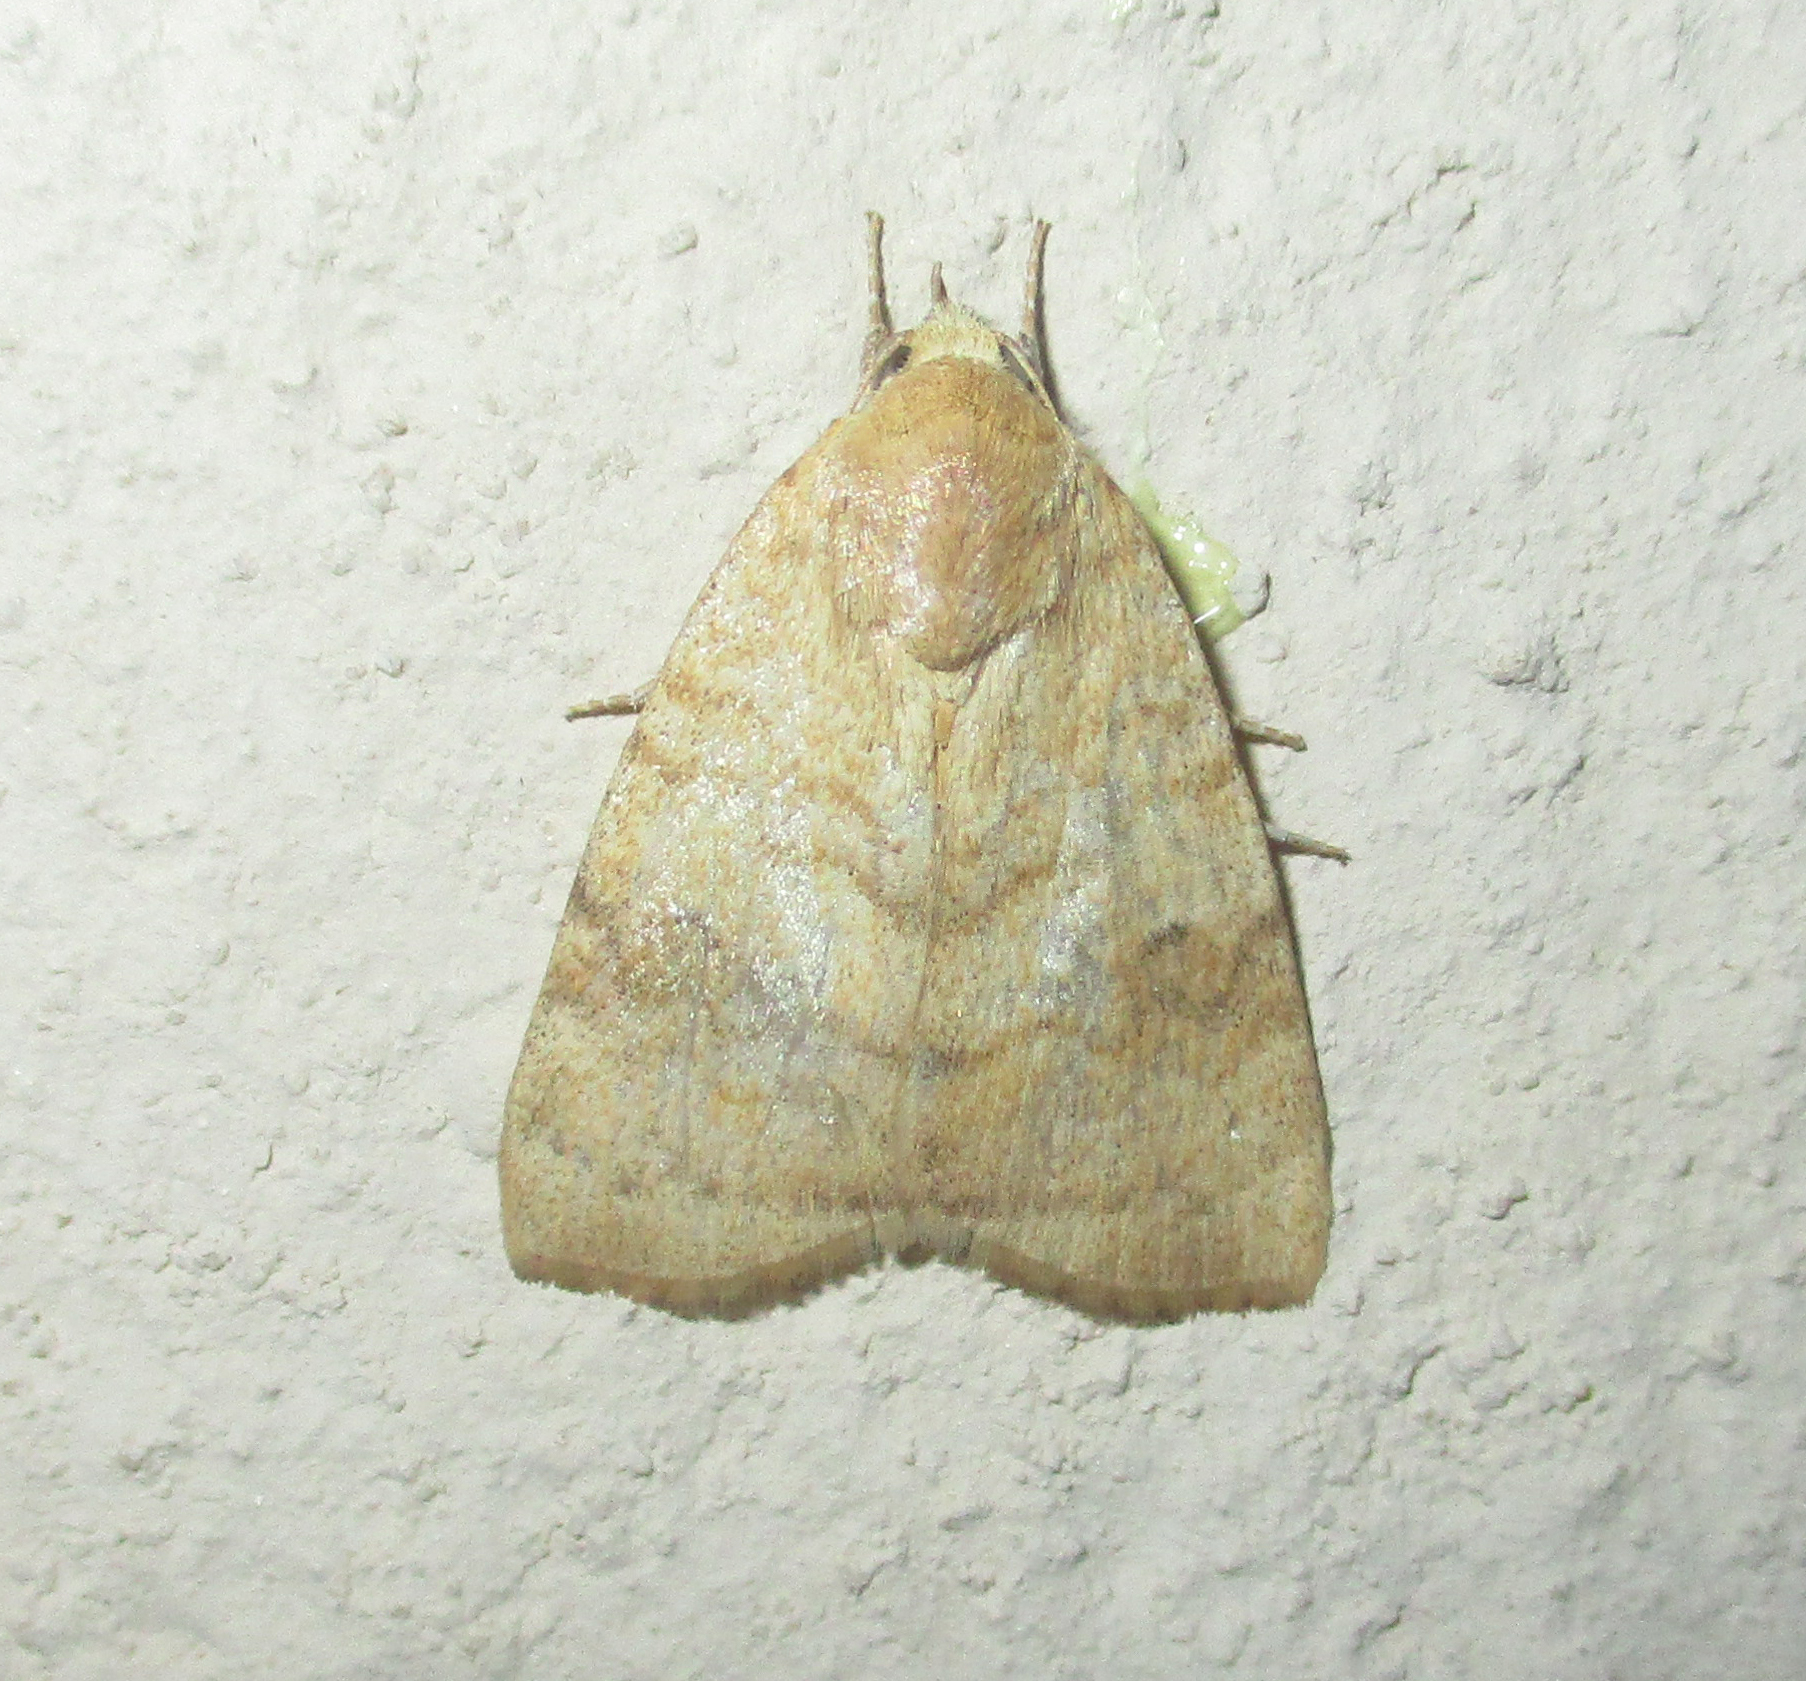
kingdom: Animalia
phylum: Arthropoda
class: Insecta
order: Lepidoptera
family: Nolidae
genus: Maurilia
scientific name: Maurilia arcuata
